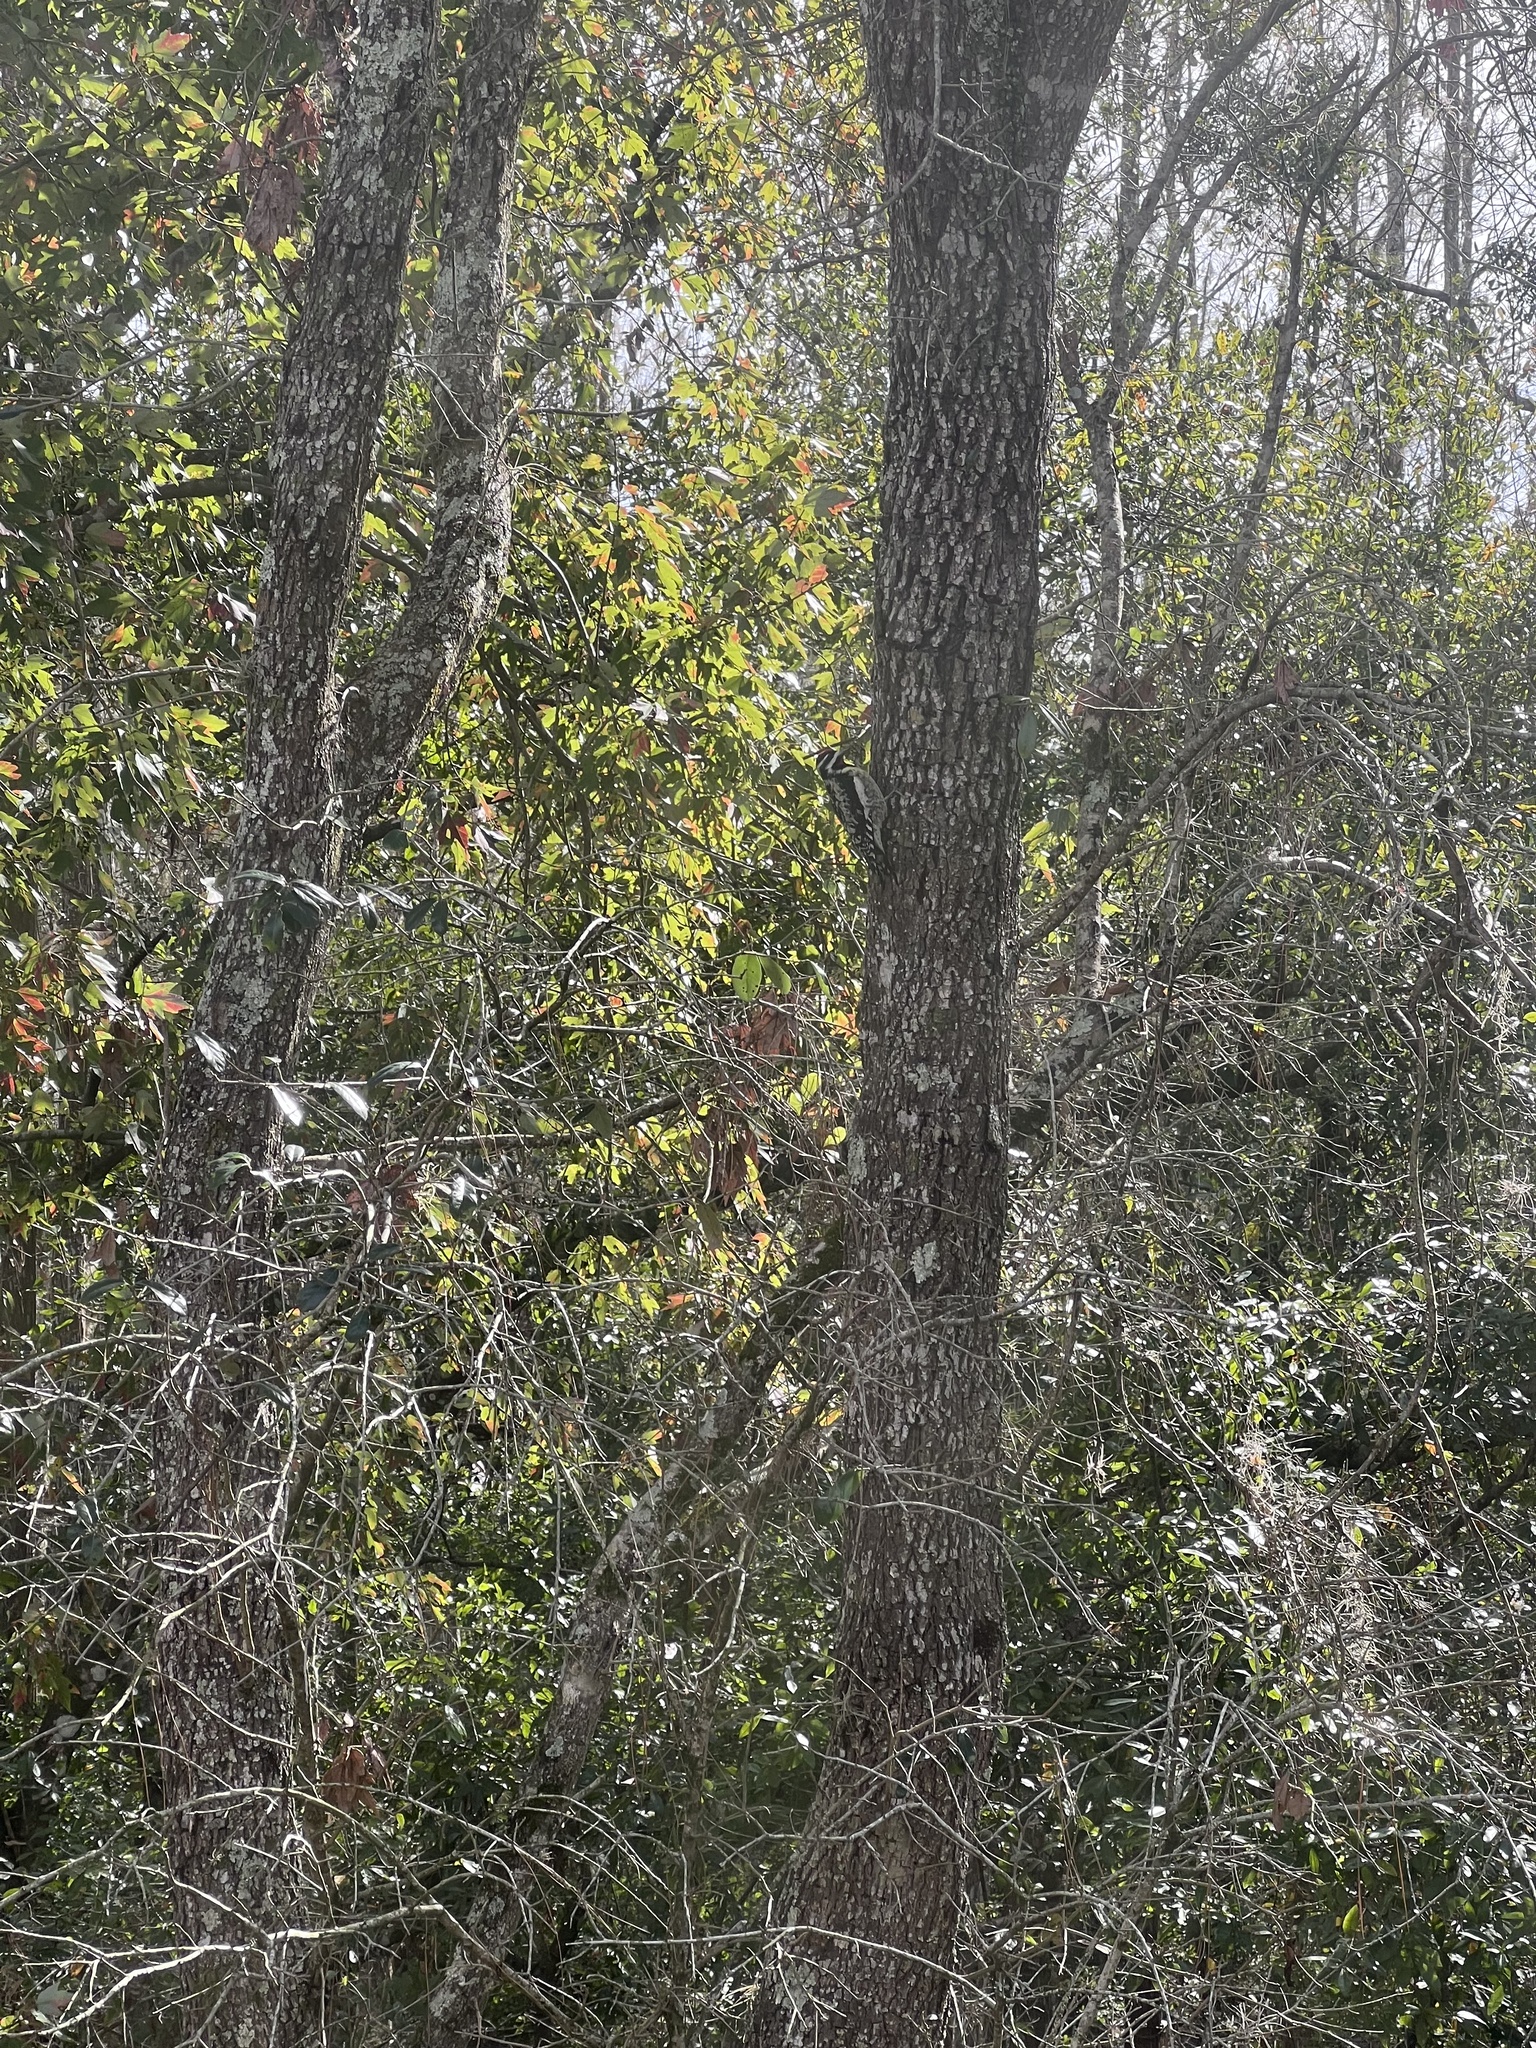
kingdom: Animalia
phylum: Chordata
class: Aves
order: Piciformes
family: Picidae
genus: Sphyrapicus
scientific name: Sphyrapicus varius
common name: Yellow-bellied sapsucker
